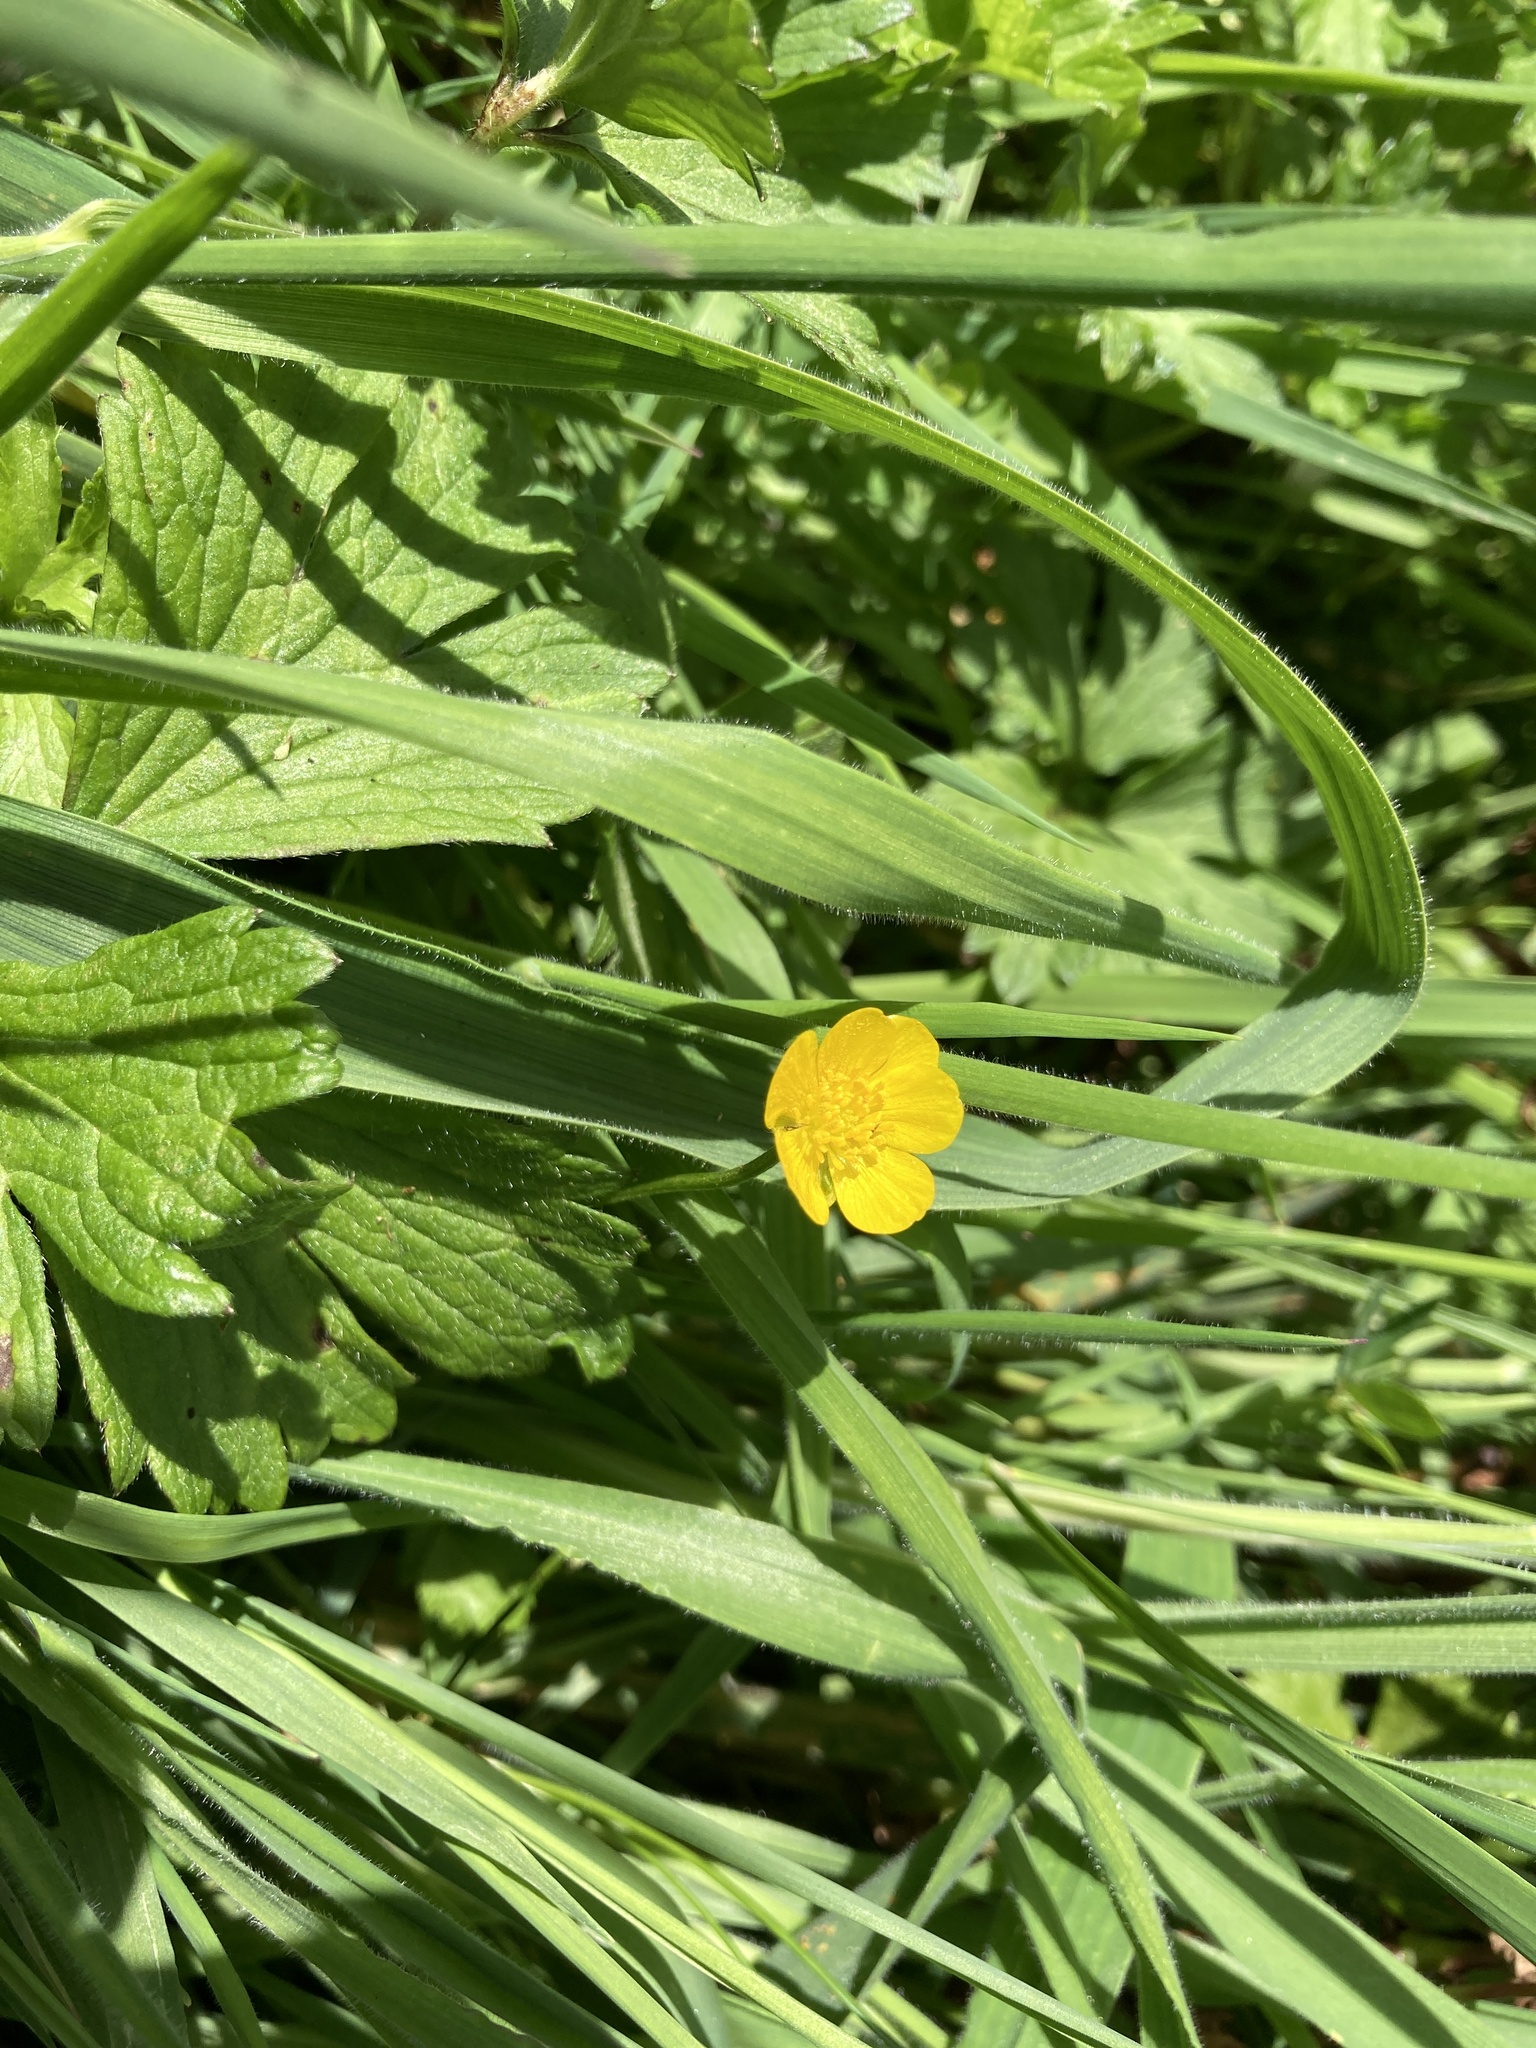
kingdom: Plantae
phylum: Tracheophyta
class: Magnoliopsida
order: Ranunculales
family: Ranunculaceae
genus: Ranunculus
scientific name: Ranunculus repens
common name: Creeping buttercup
